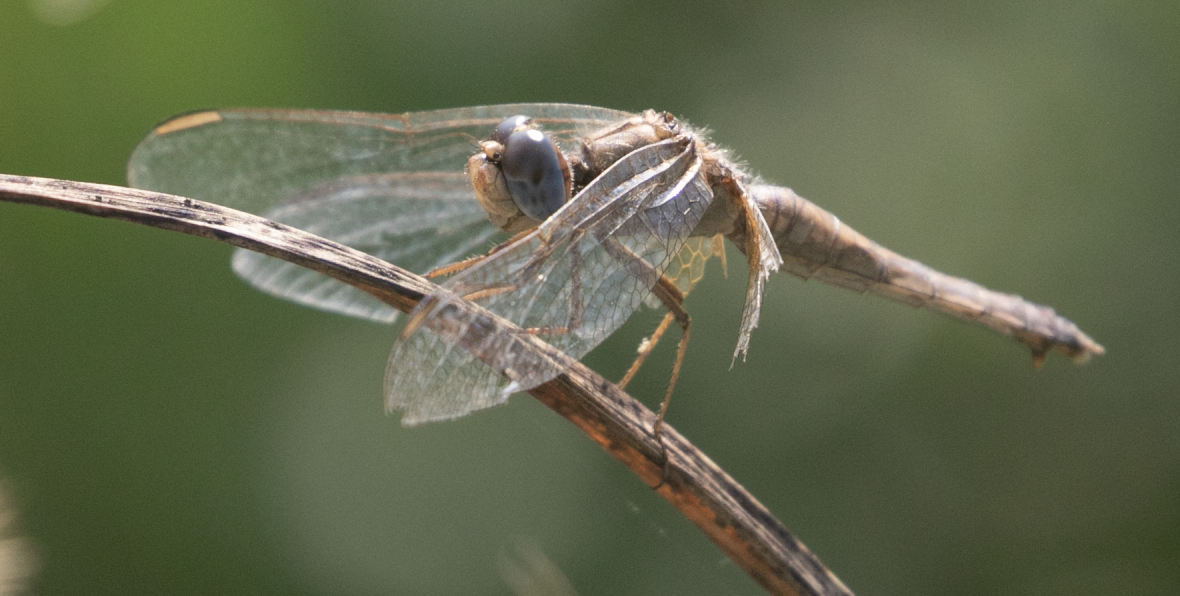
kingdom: Animalia
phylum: Arthropoda
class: Insecta
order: Odonata
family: Libellulidae
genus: Crocothemis
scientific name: Crocothemis erythraea
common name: Scarlet dragonfly
